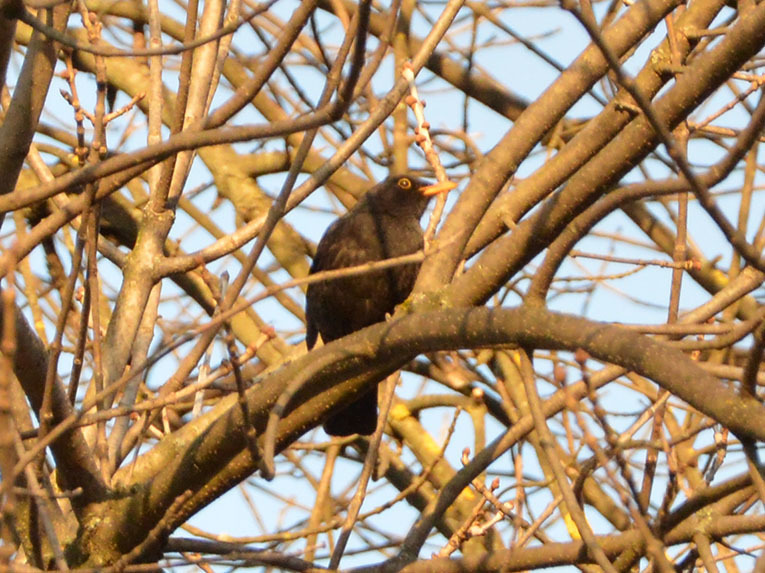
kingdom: Animalia
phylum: Chordata
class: Aves
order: Passeriformes
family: Turdidae
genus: Turdus
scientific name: Turdus merula
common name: Common blackbird
